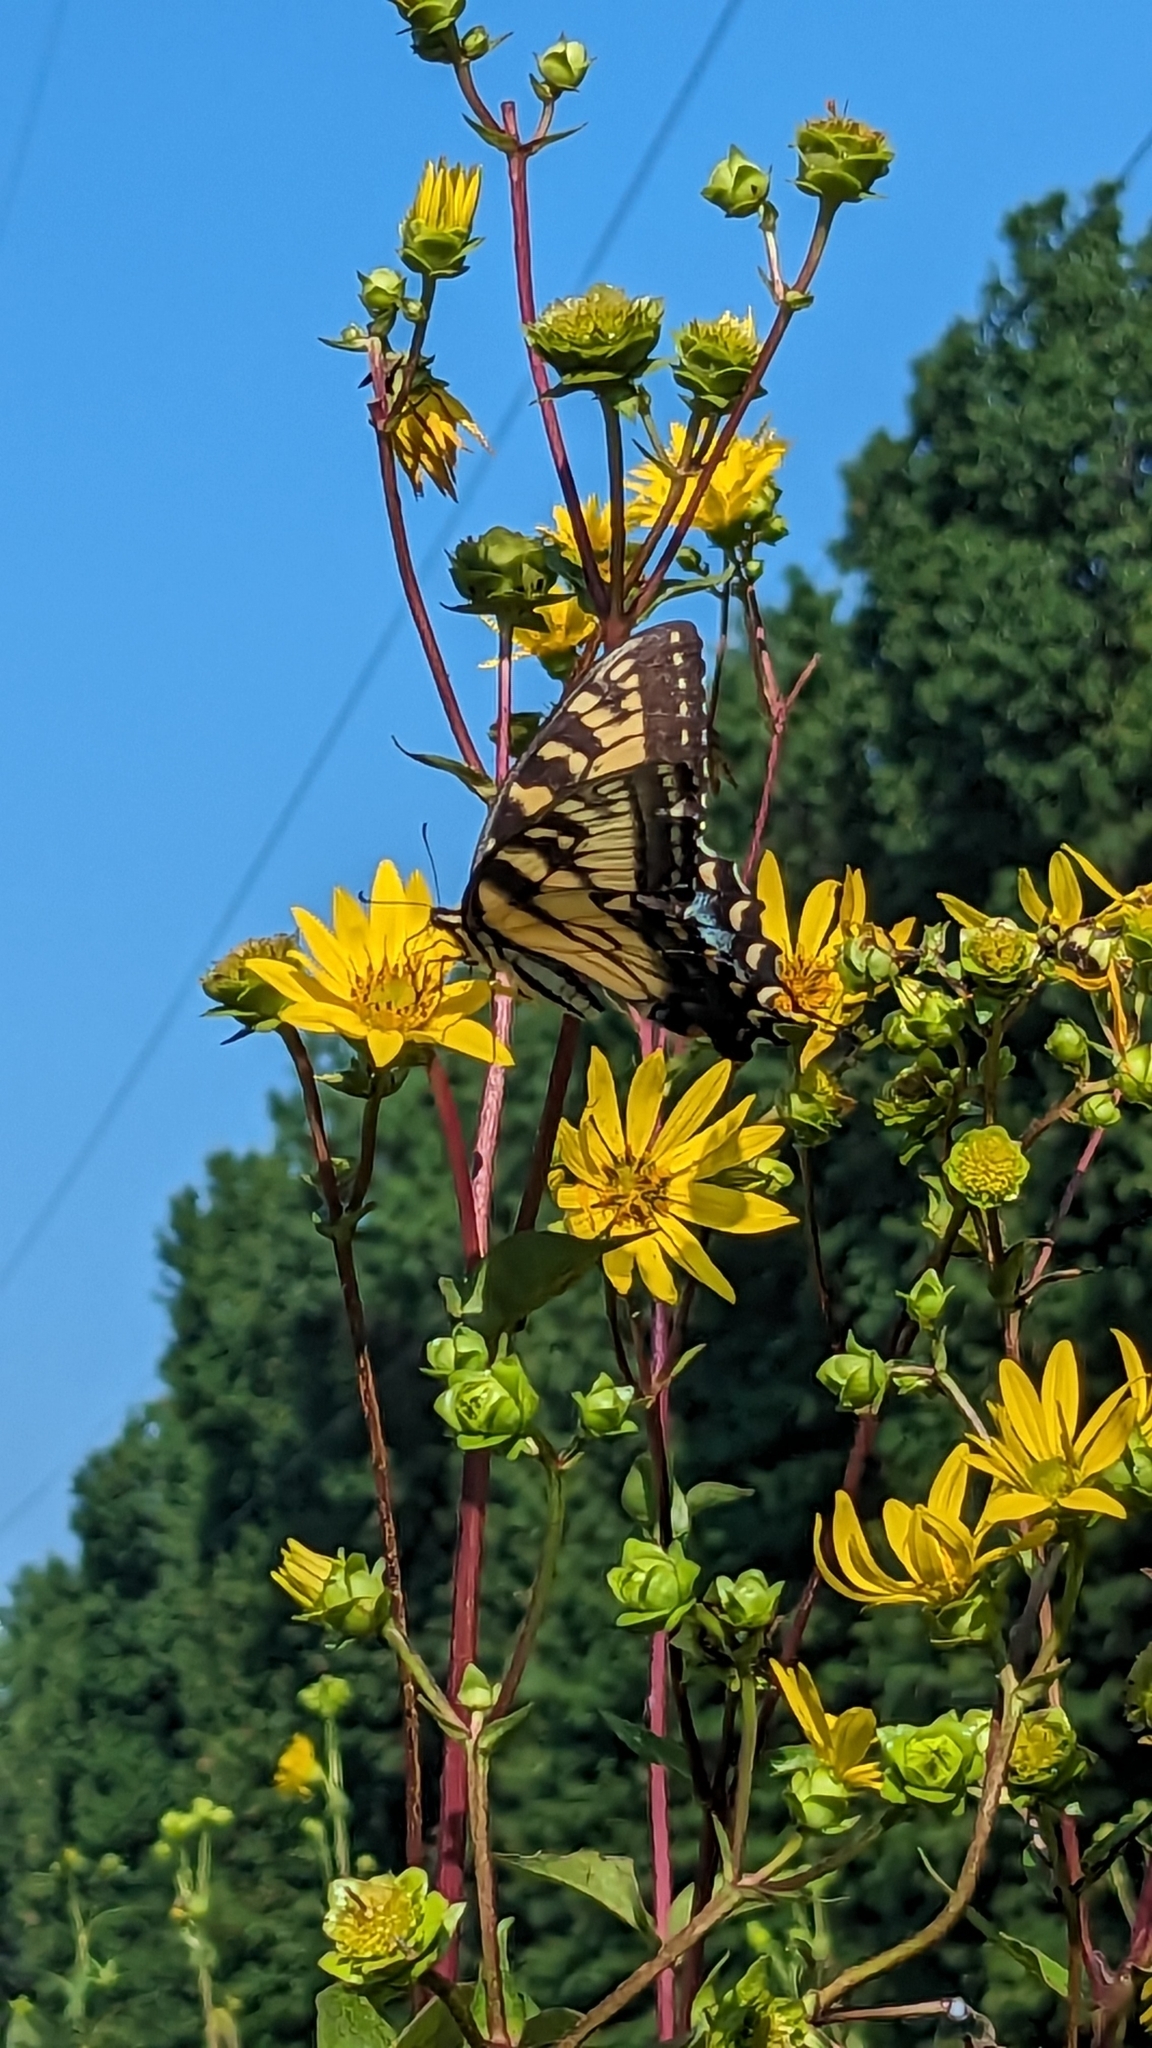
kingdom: Animalia
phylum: Arthropoda
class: Insecta
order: Lepidoptera
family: Papilionidae
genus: Papilio
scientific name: Papilio glaucus
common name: Tiger swallowtail
